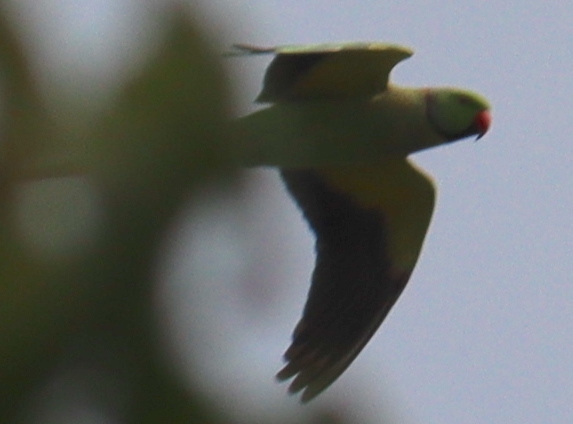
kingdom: Animalia
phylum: Chordata
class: Aves
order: Psittaciformes
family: Psittacidae
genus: Psittacula
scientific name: Psittacula krameri
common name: Rose-ringed parakeet
